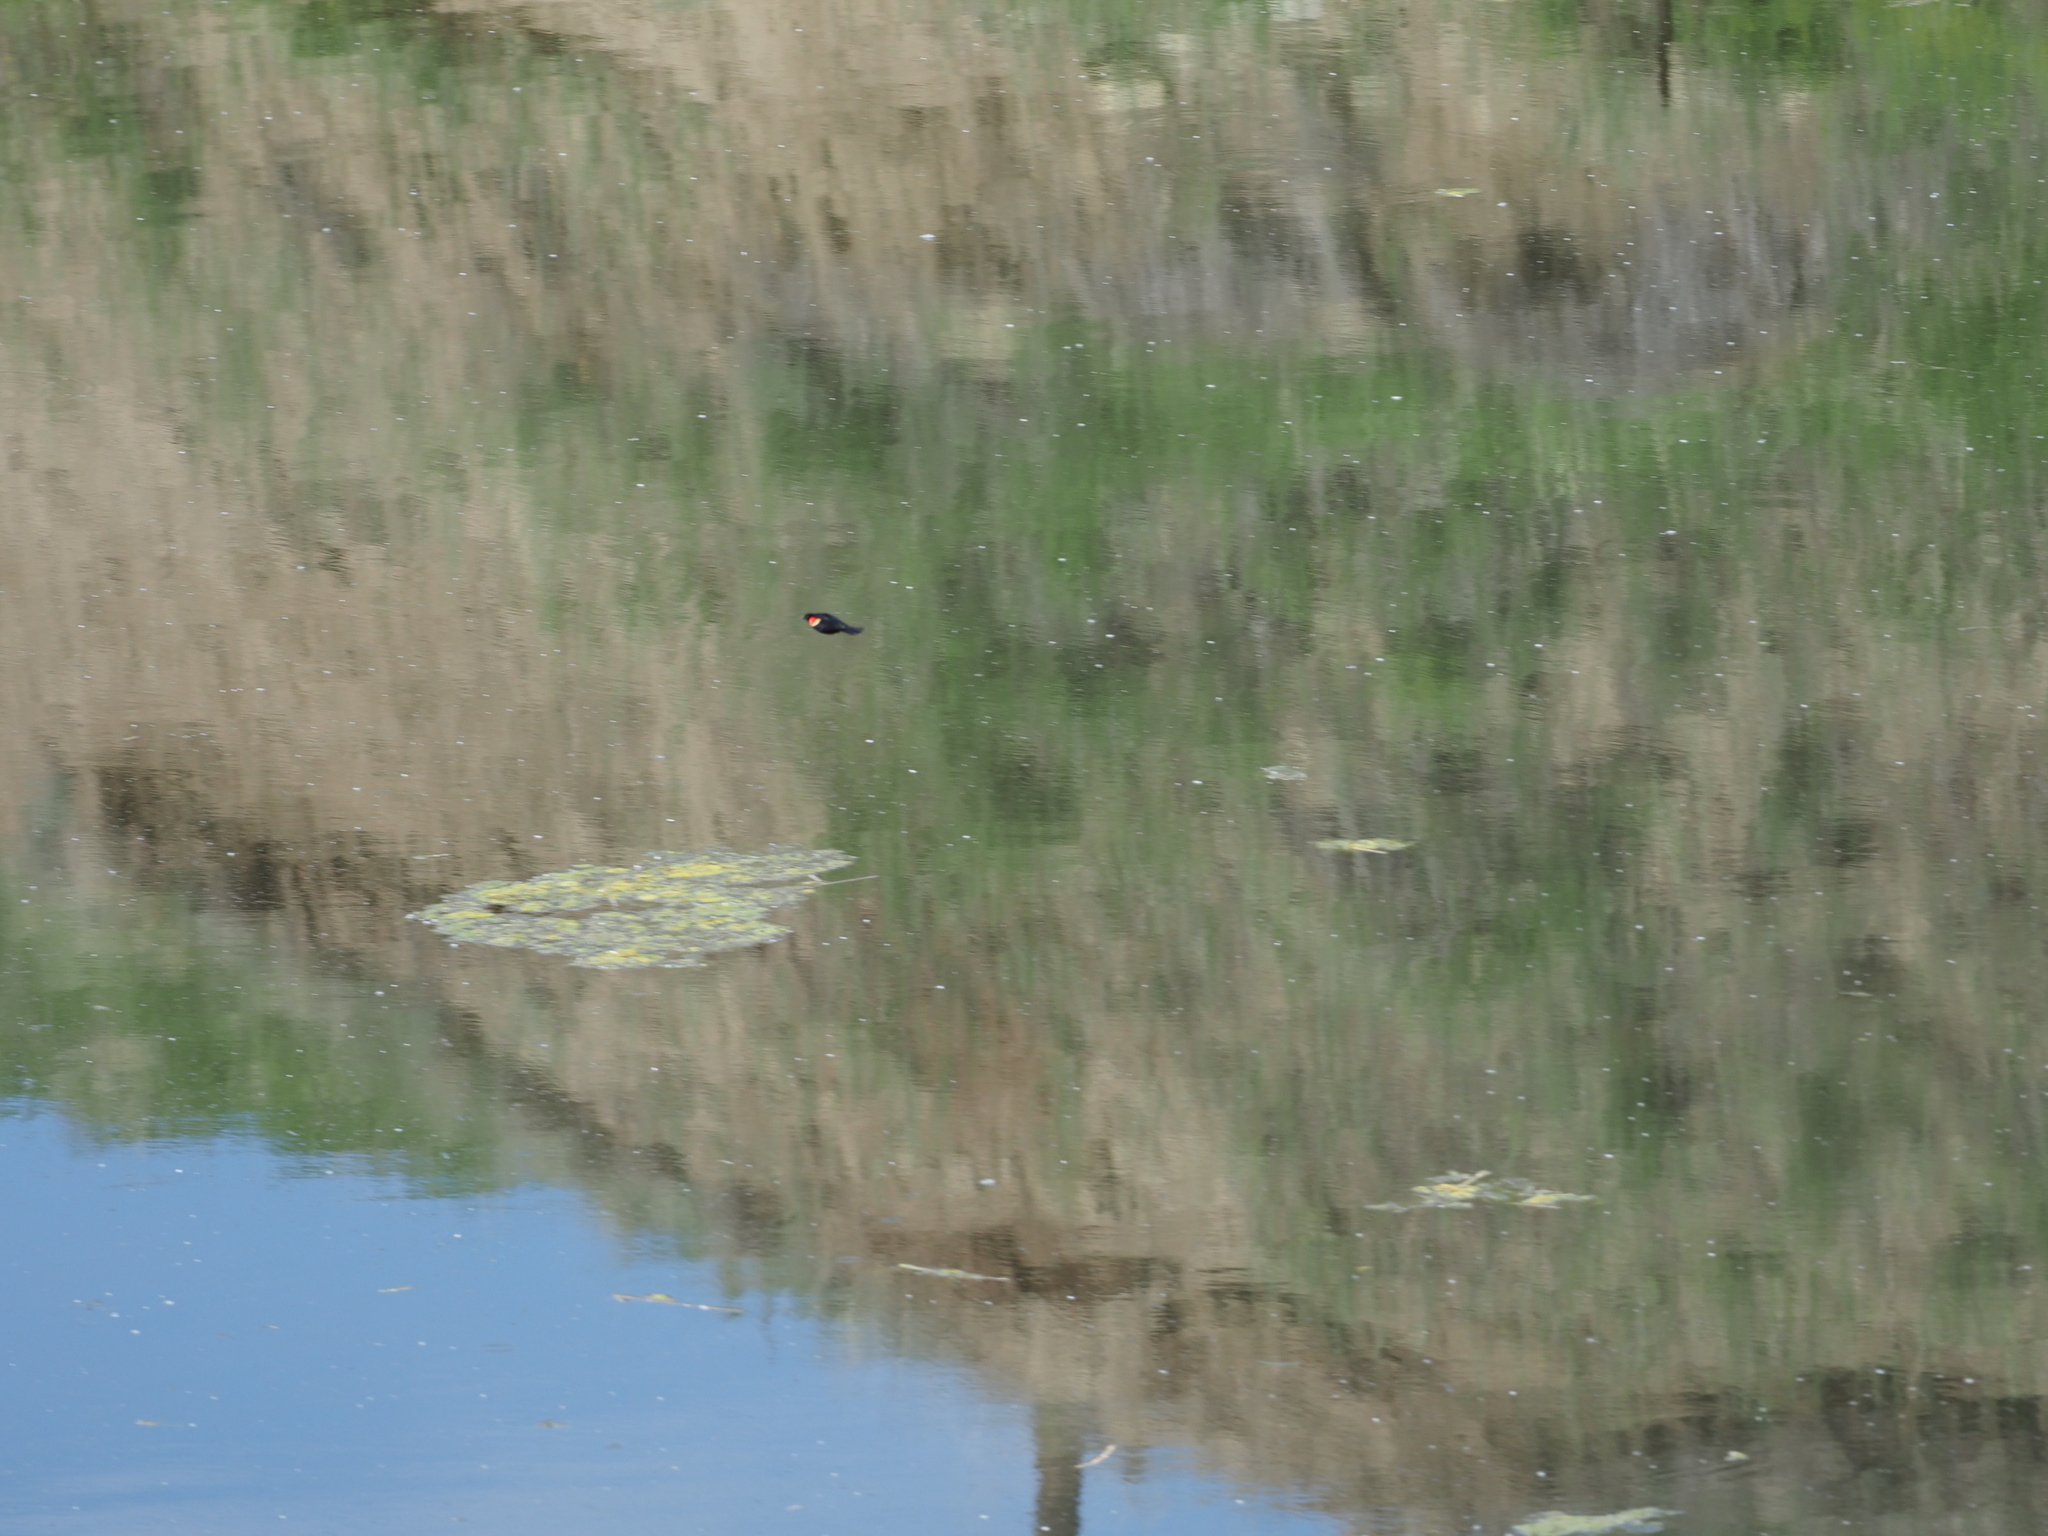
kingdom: Animalia
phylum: Chordata
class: Aves
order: Passeriformes
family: Icteridae
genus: Agelaius
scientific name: Agelaius phoeniceus
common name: Red-winged blackbird
